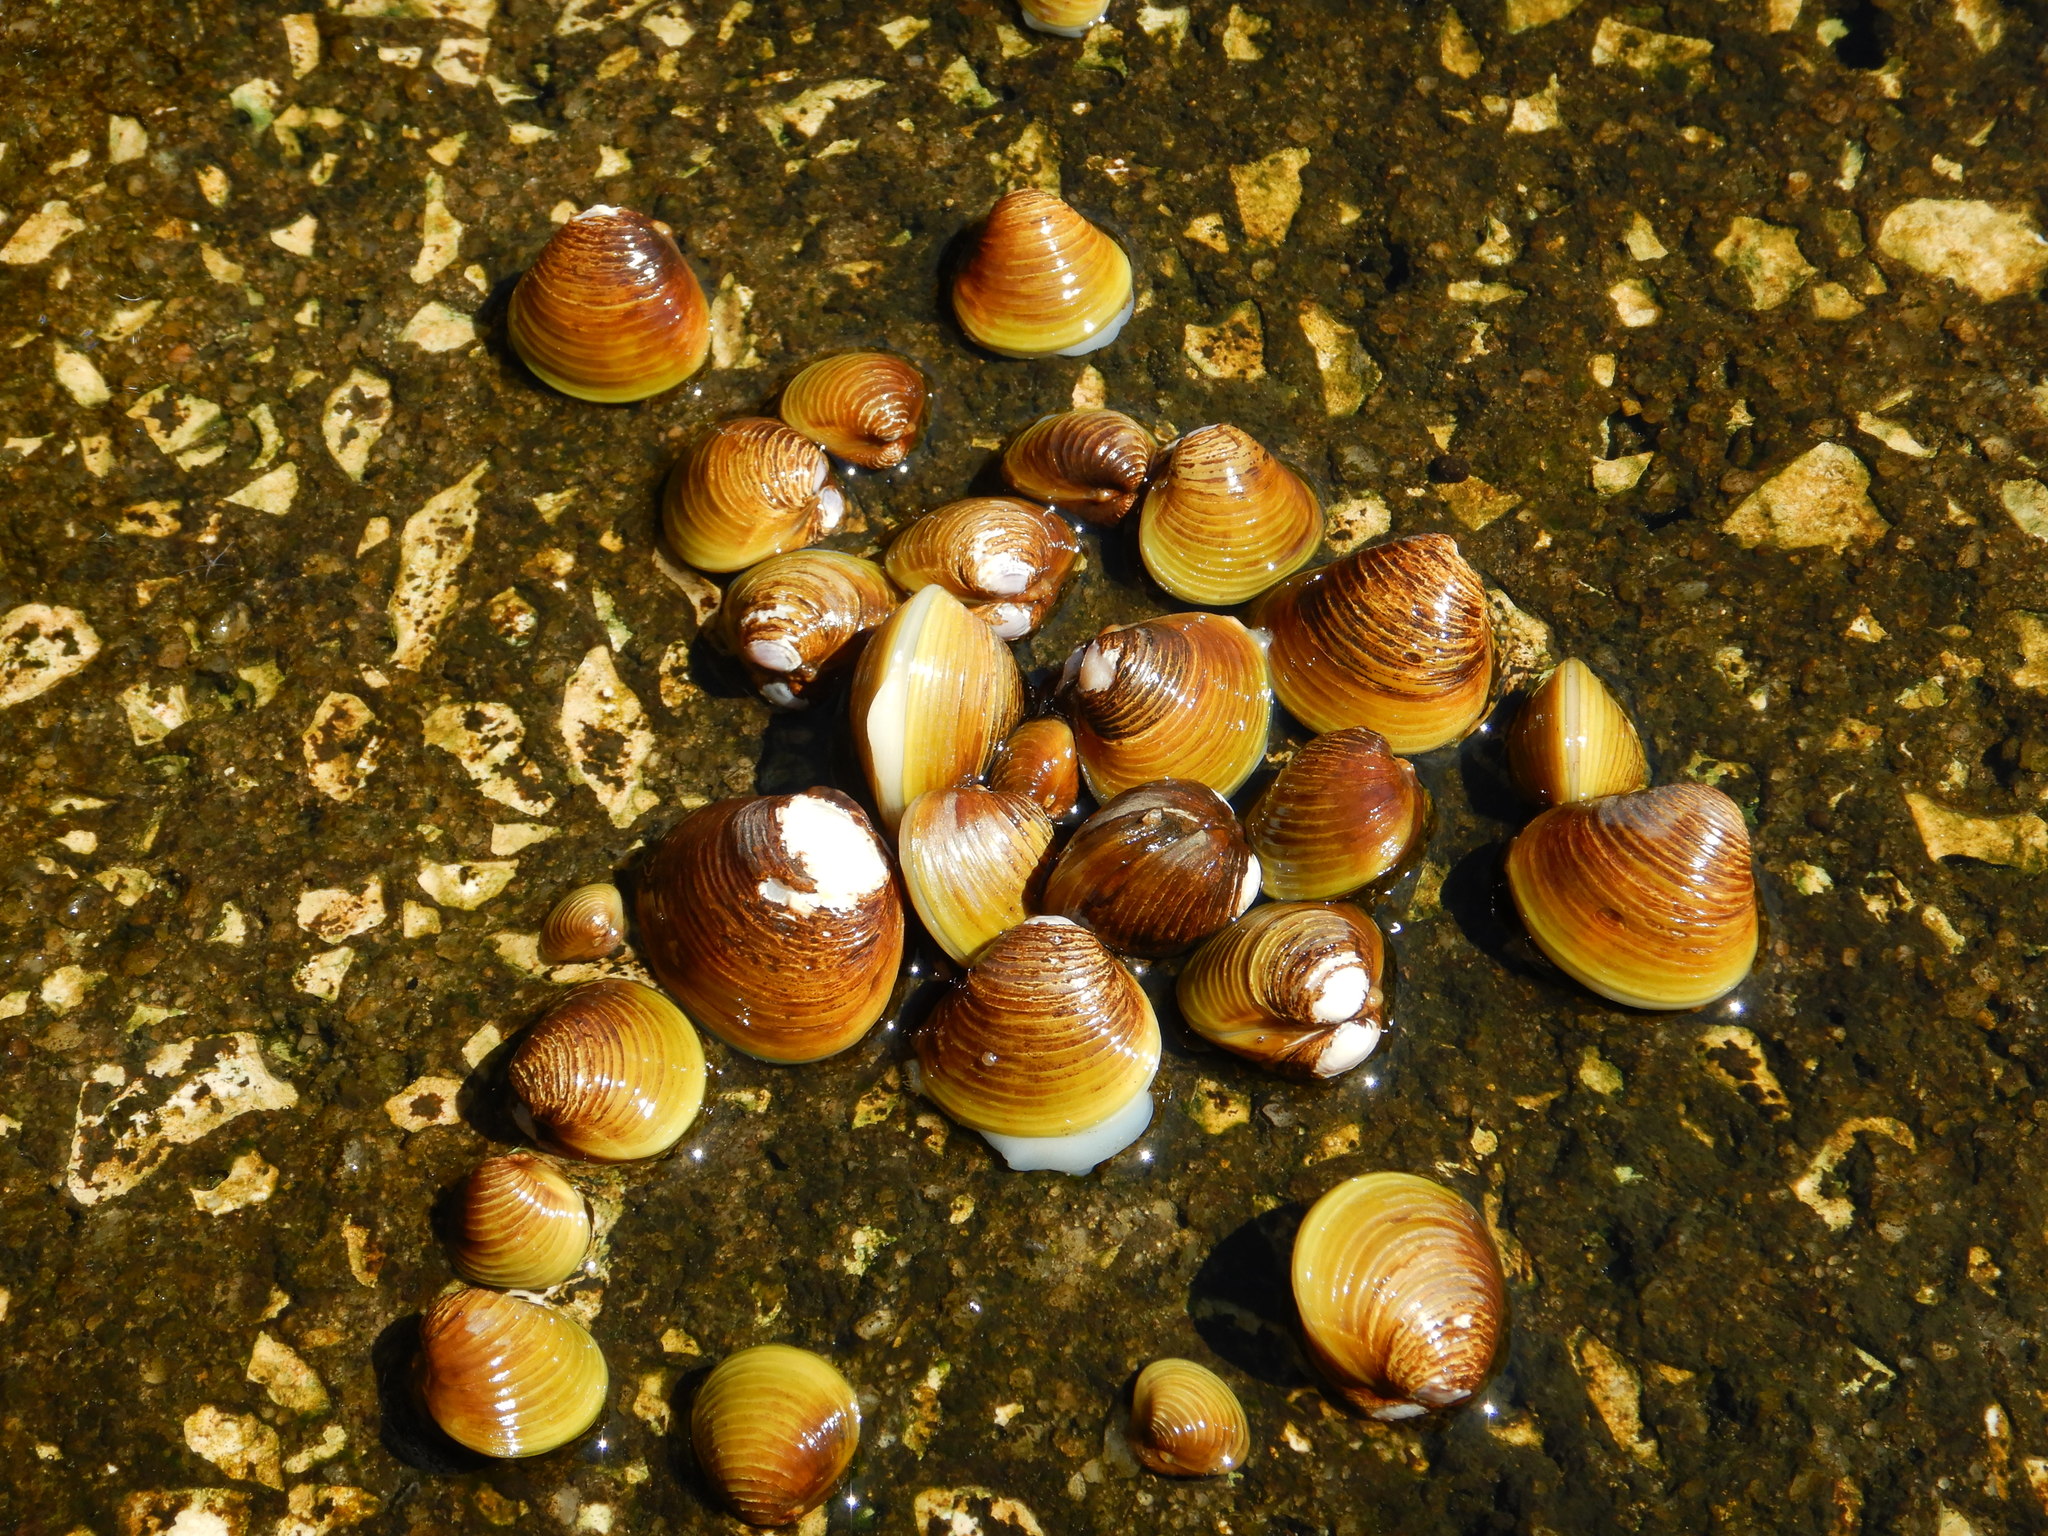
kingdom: Animalia
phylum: Mollusca
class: Bivalvia
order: Venerida
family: Cyrenidae
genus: Corbicula
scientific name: Corbicula fluminea
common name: Asian clam
